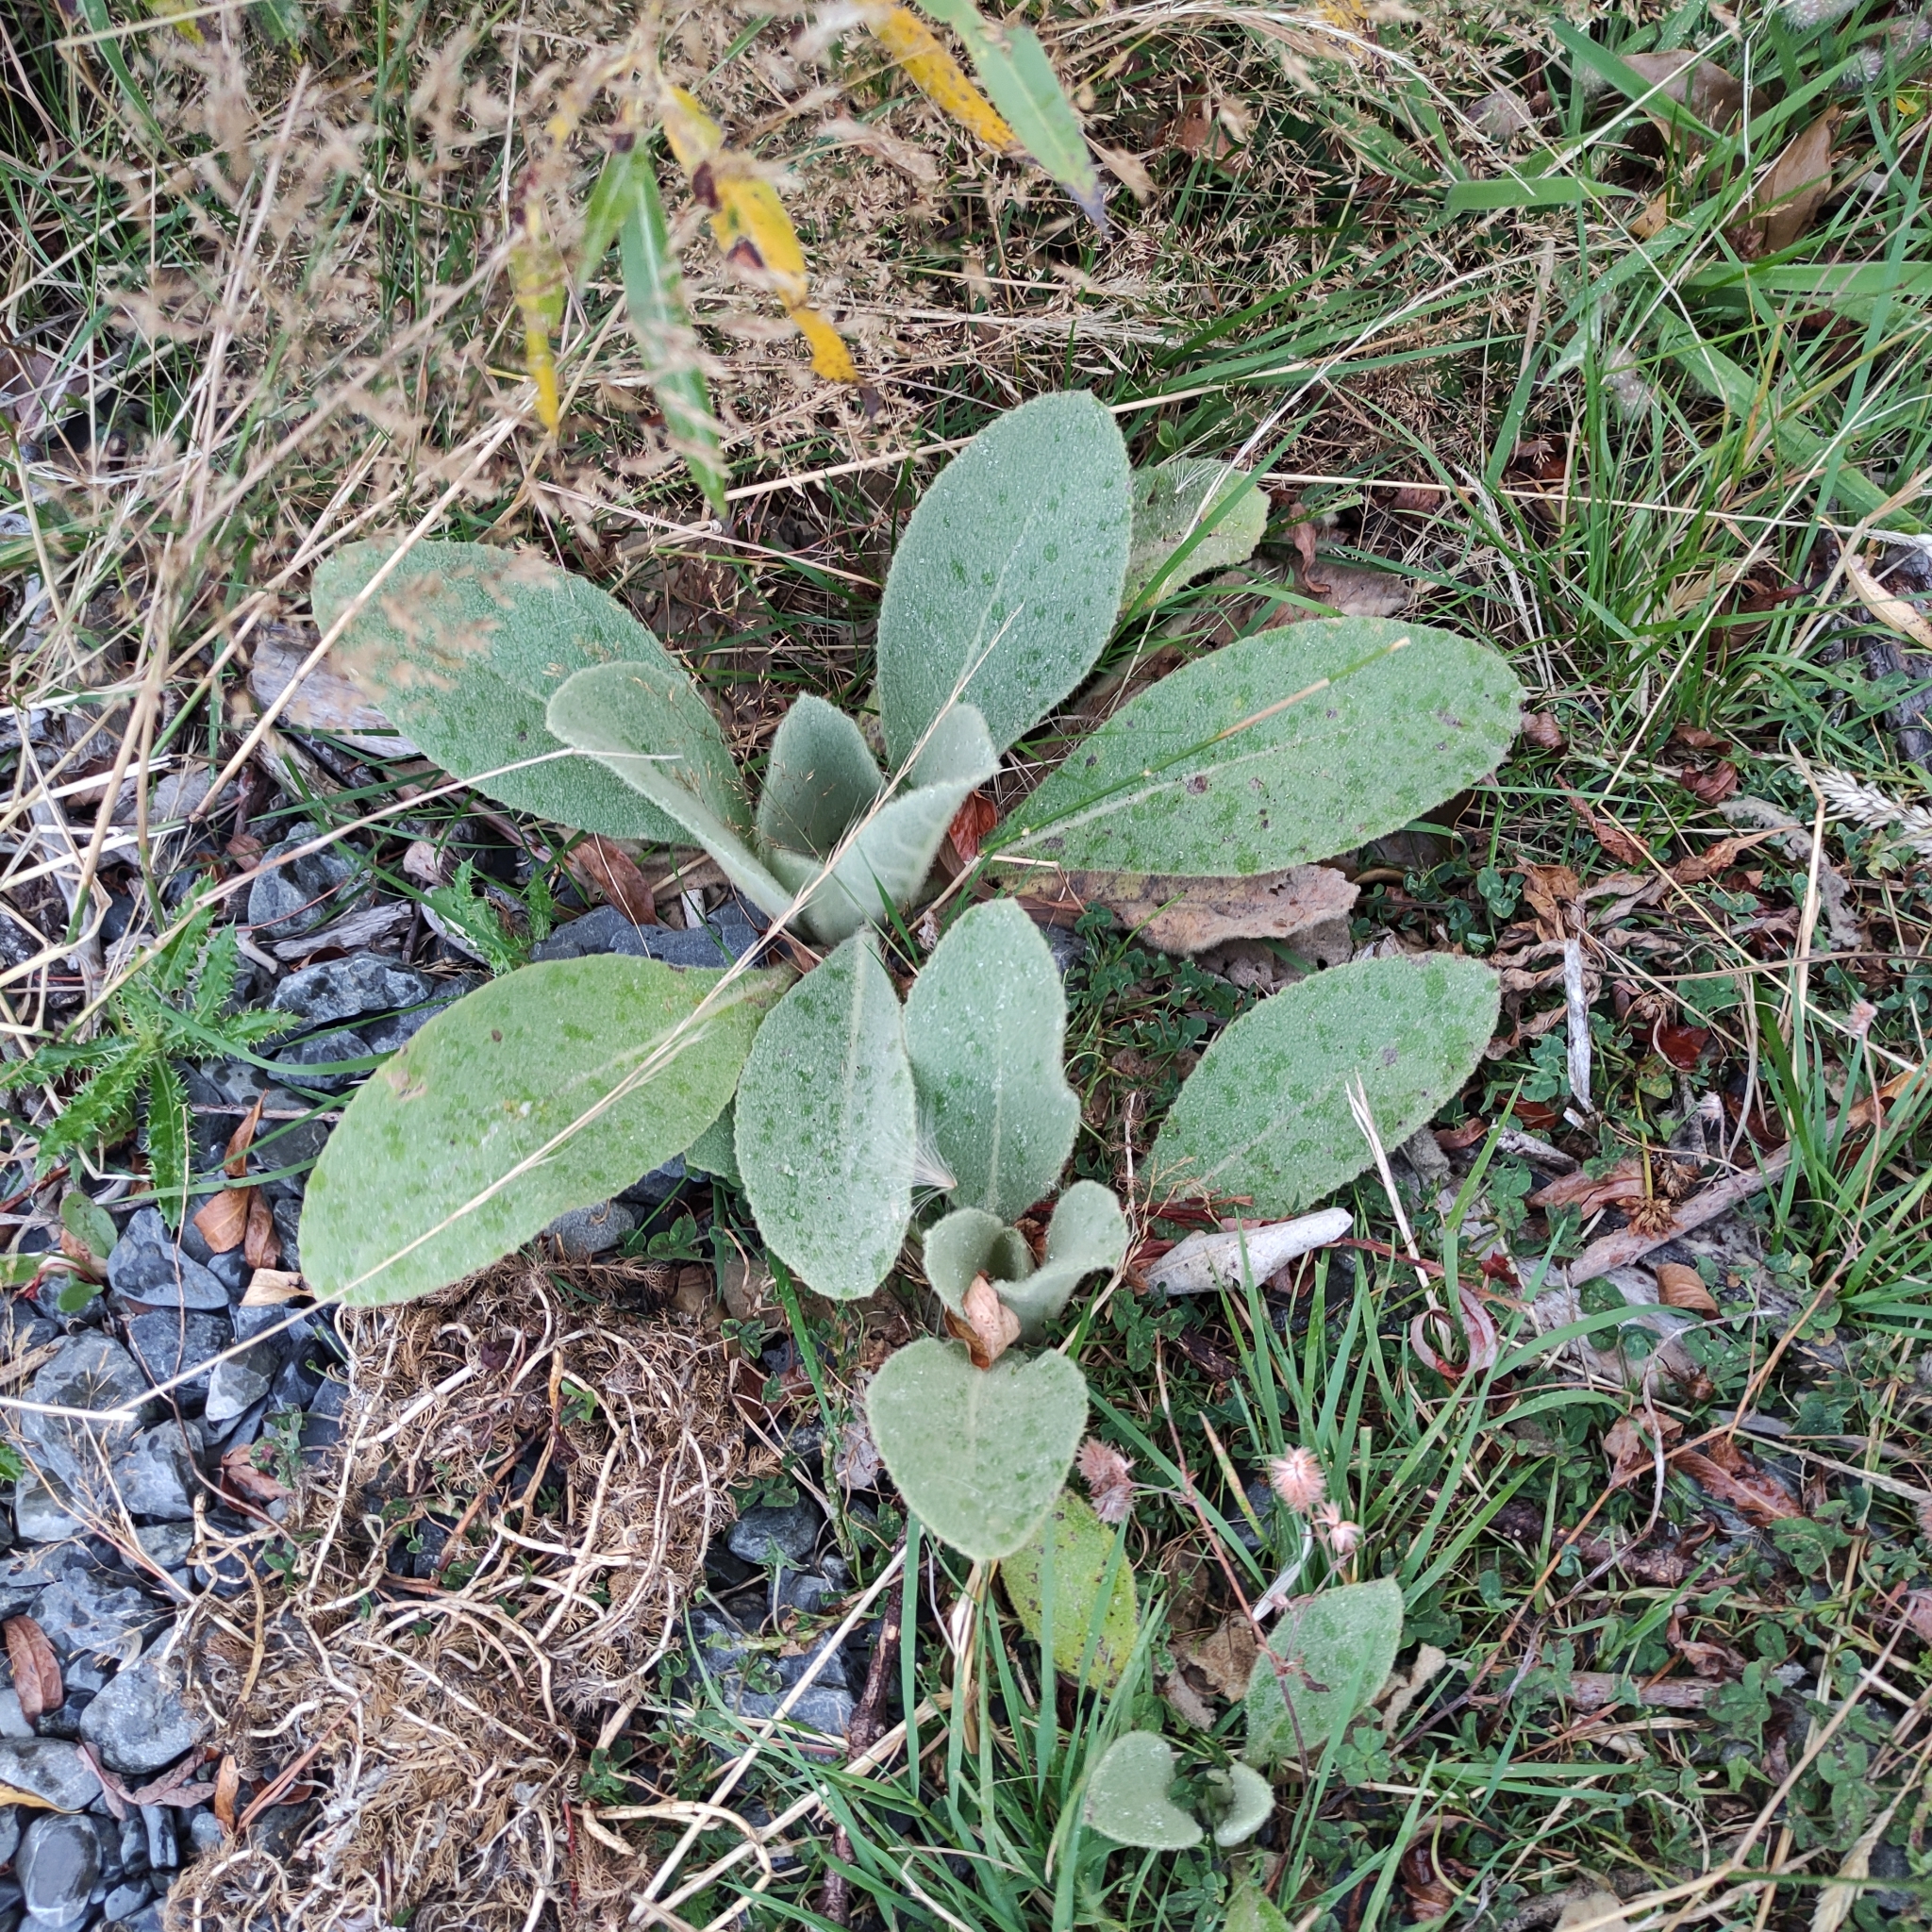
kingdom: Plantae
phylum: Tracheophyta
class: Magnoliopsida
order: Lamiales
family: Scrophulariaceae
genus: Verbascum
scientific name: Verbascum thapsus
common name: Common mullein
